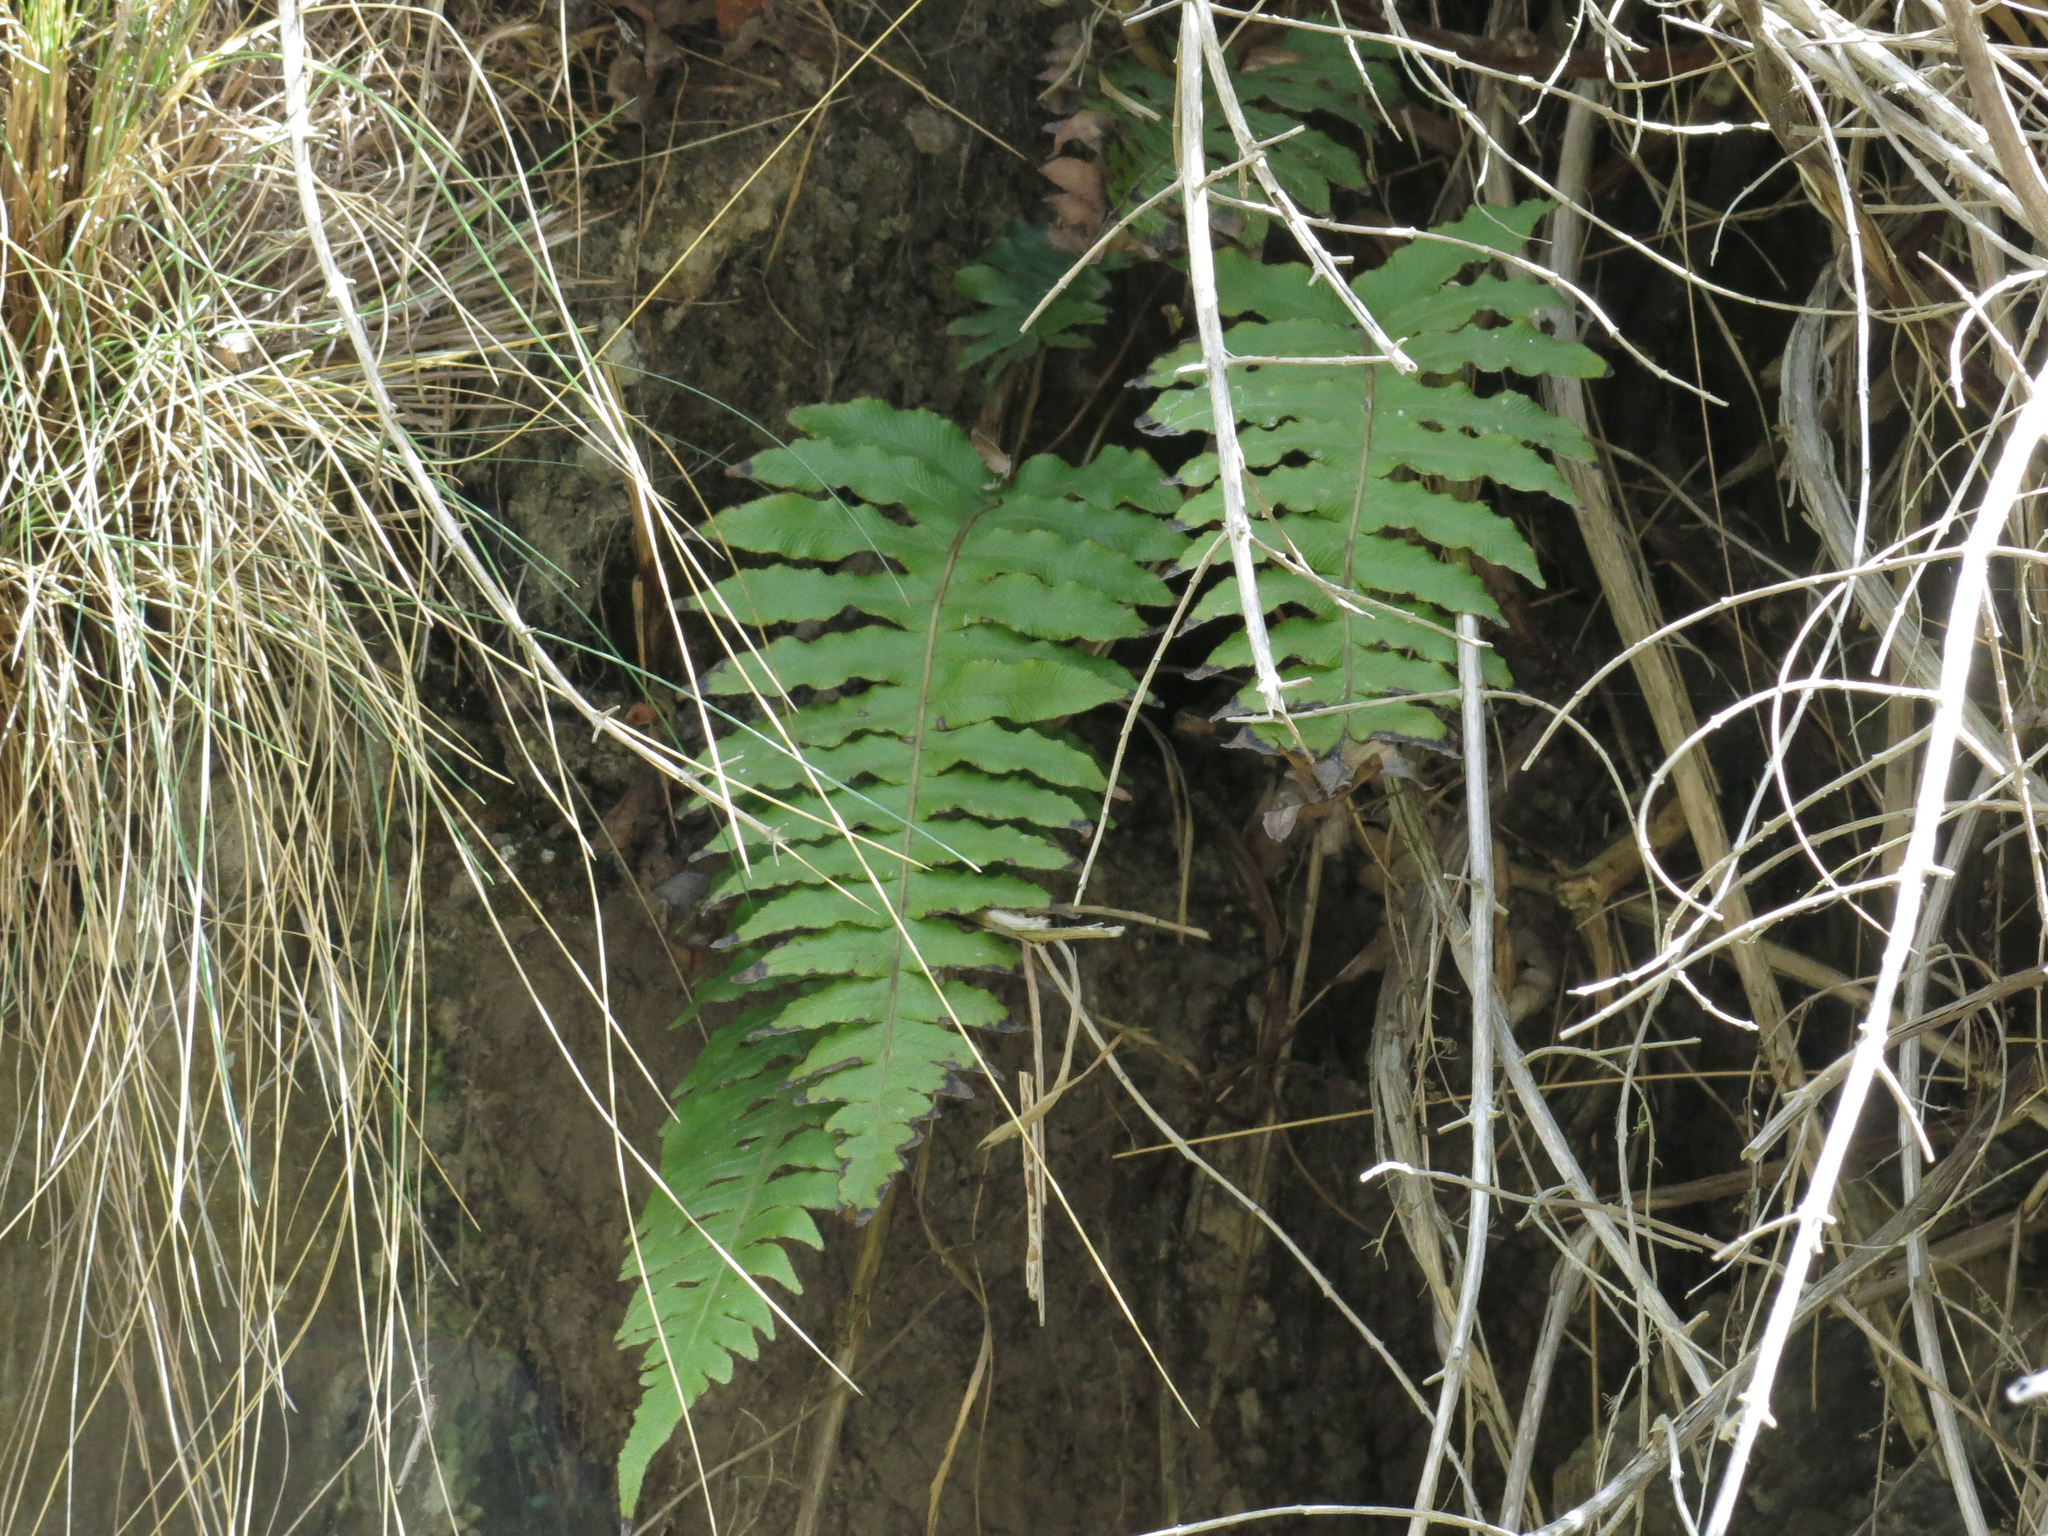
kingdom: Plantae
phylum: Tracheophyta
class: Polypodiopsida
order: Polypodiales
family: Blechnaceae
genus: Cranfillia
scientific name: Cranfillia vulcanica
